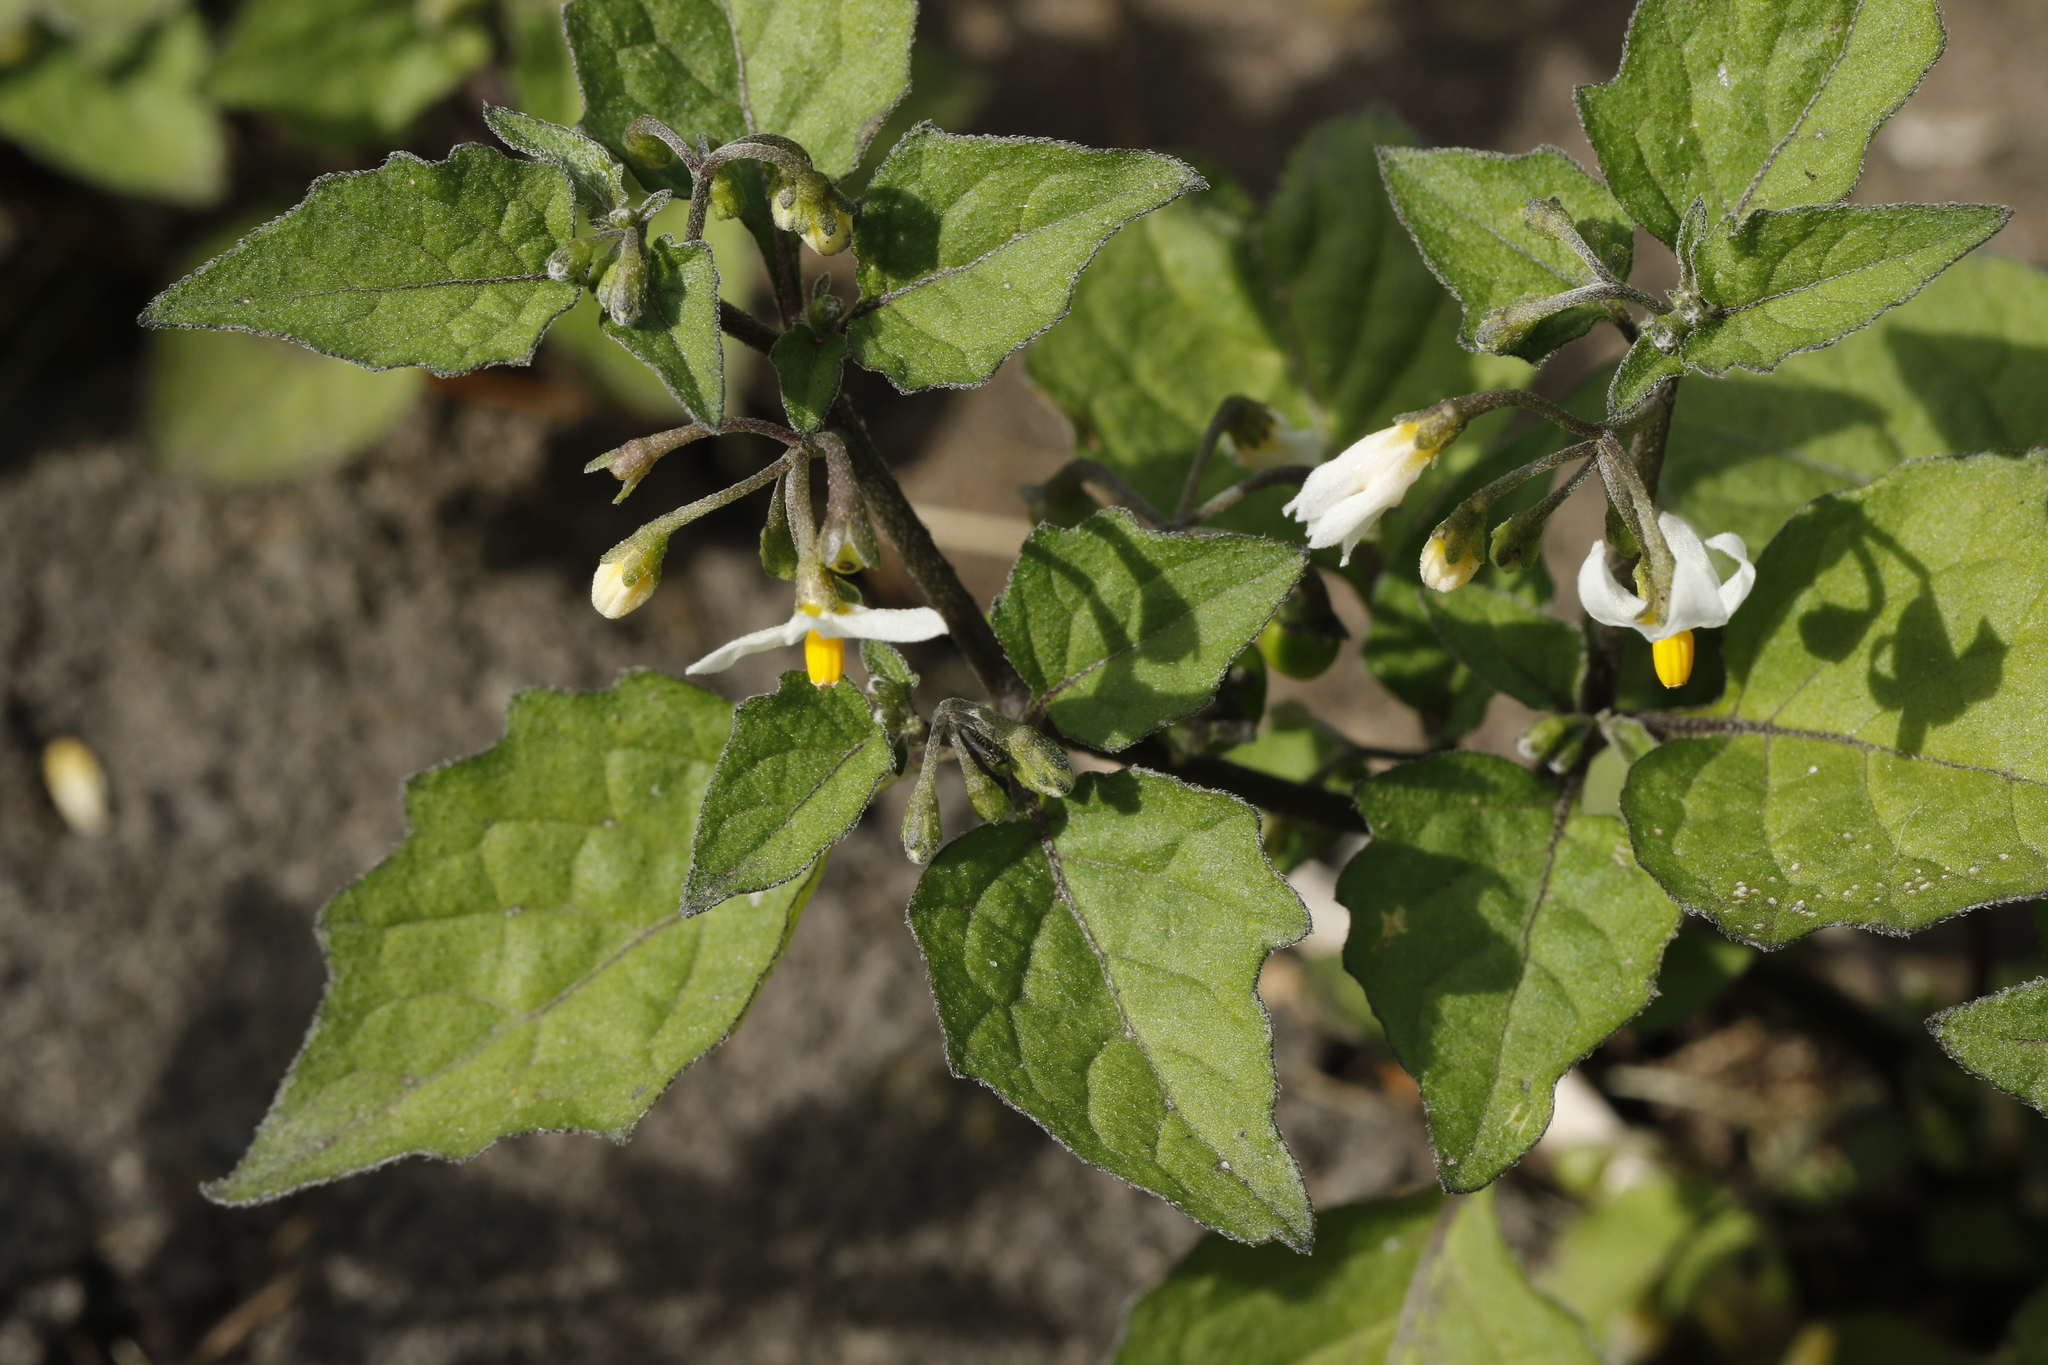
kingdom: Plantae
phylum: Tracheophyta
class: Magnoliopsida
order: Solanales
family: Solanaceae
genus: Solanum
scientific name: Solanum nigrum
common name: Black nightshade
